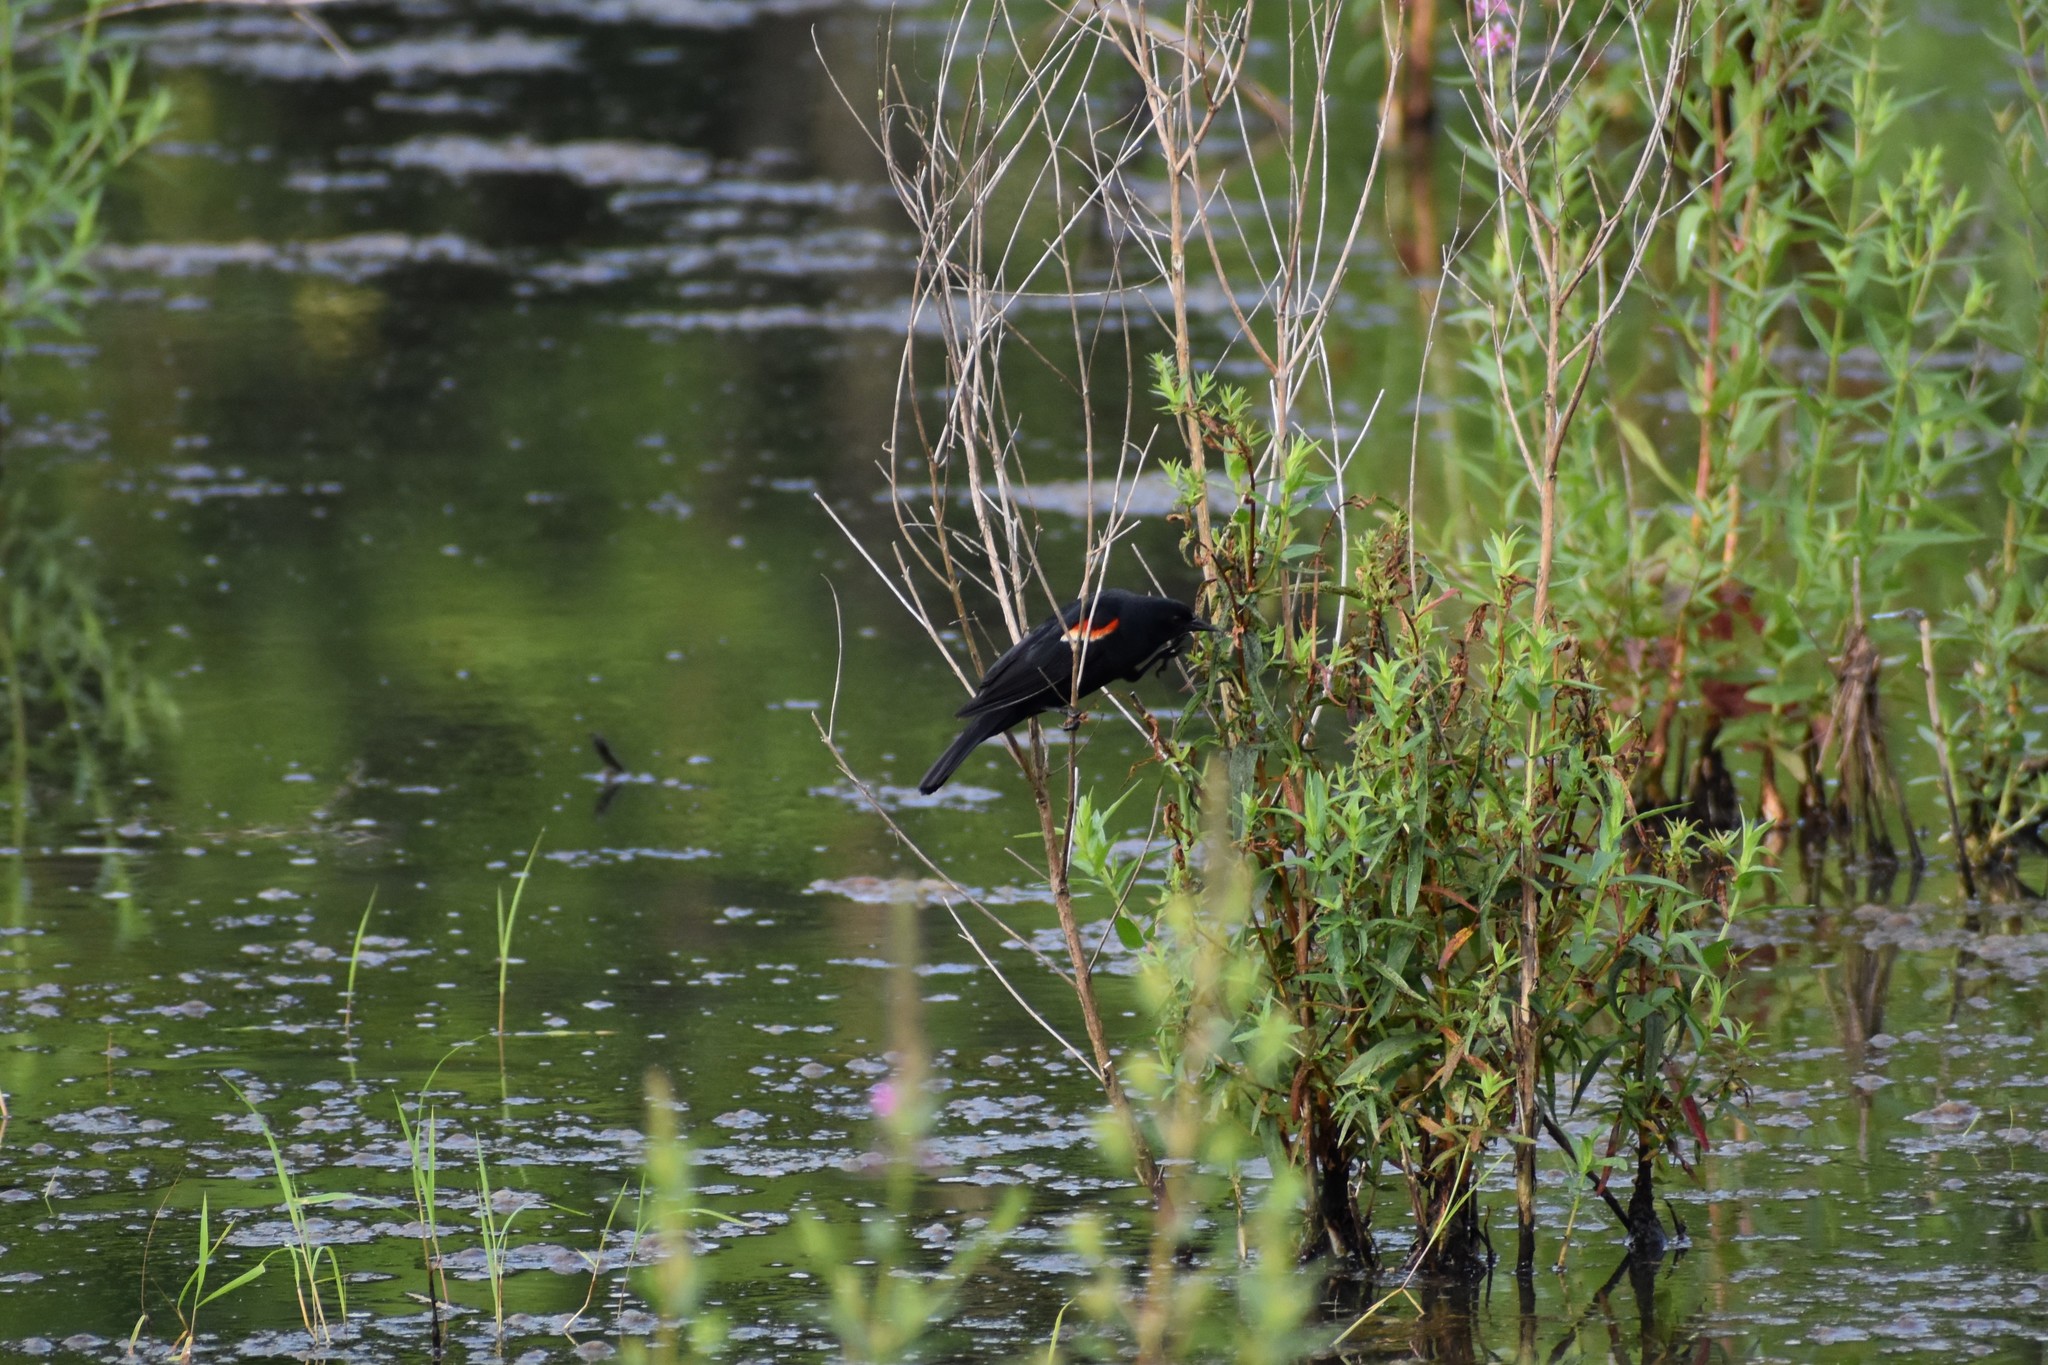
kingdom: Animalia
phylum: Chordata
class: Aves
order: Passeriformes
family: Icteridae
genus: Agelaius
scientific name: Agelaius phoeniceus
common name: Red-winged blackbird
